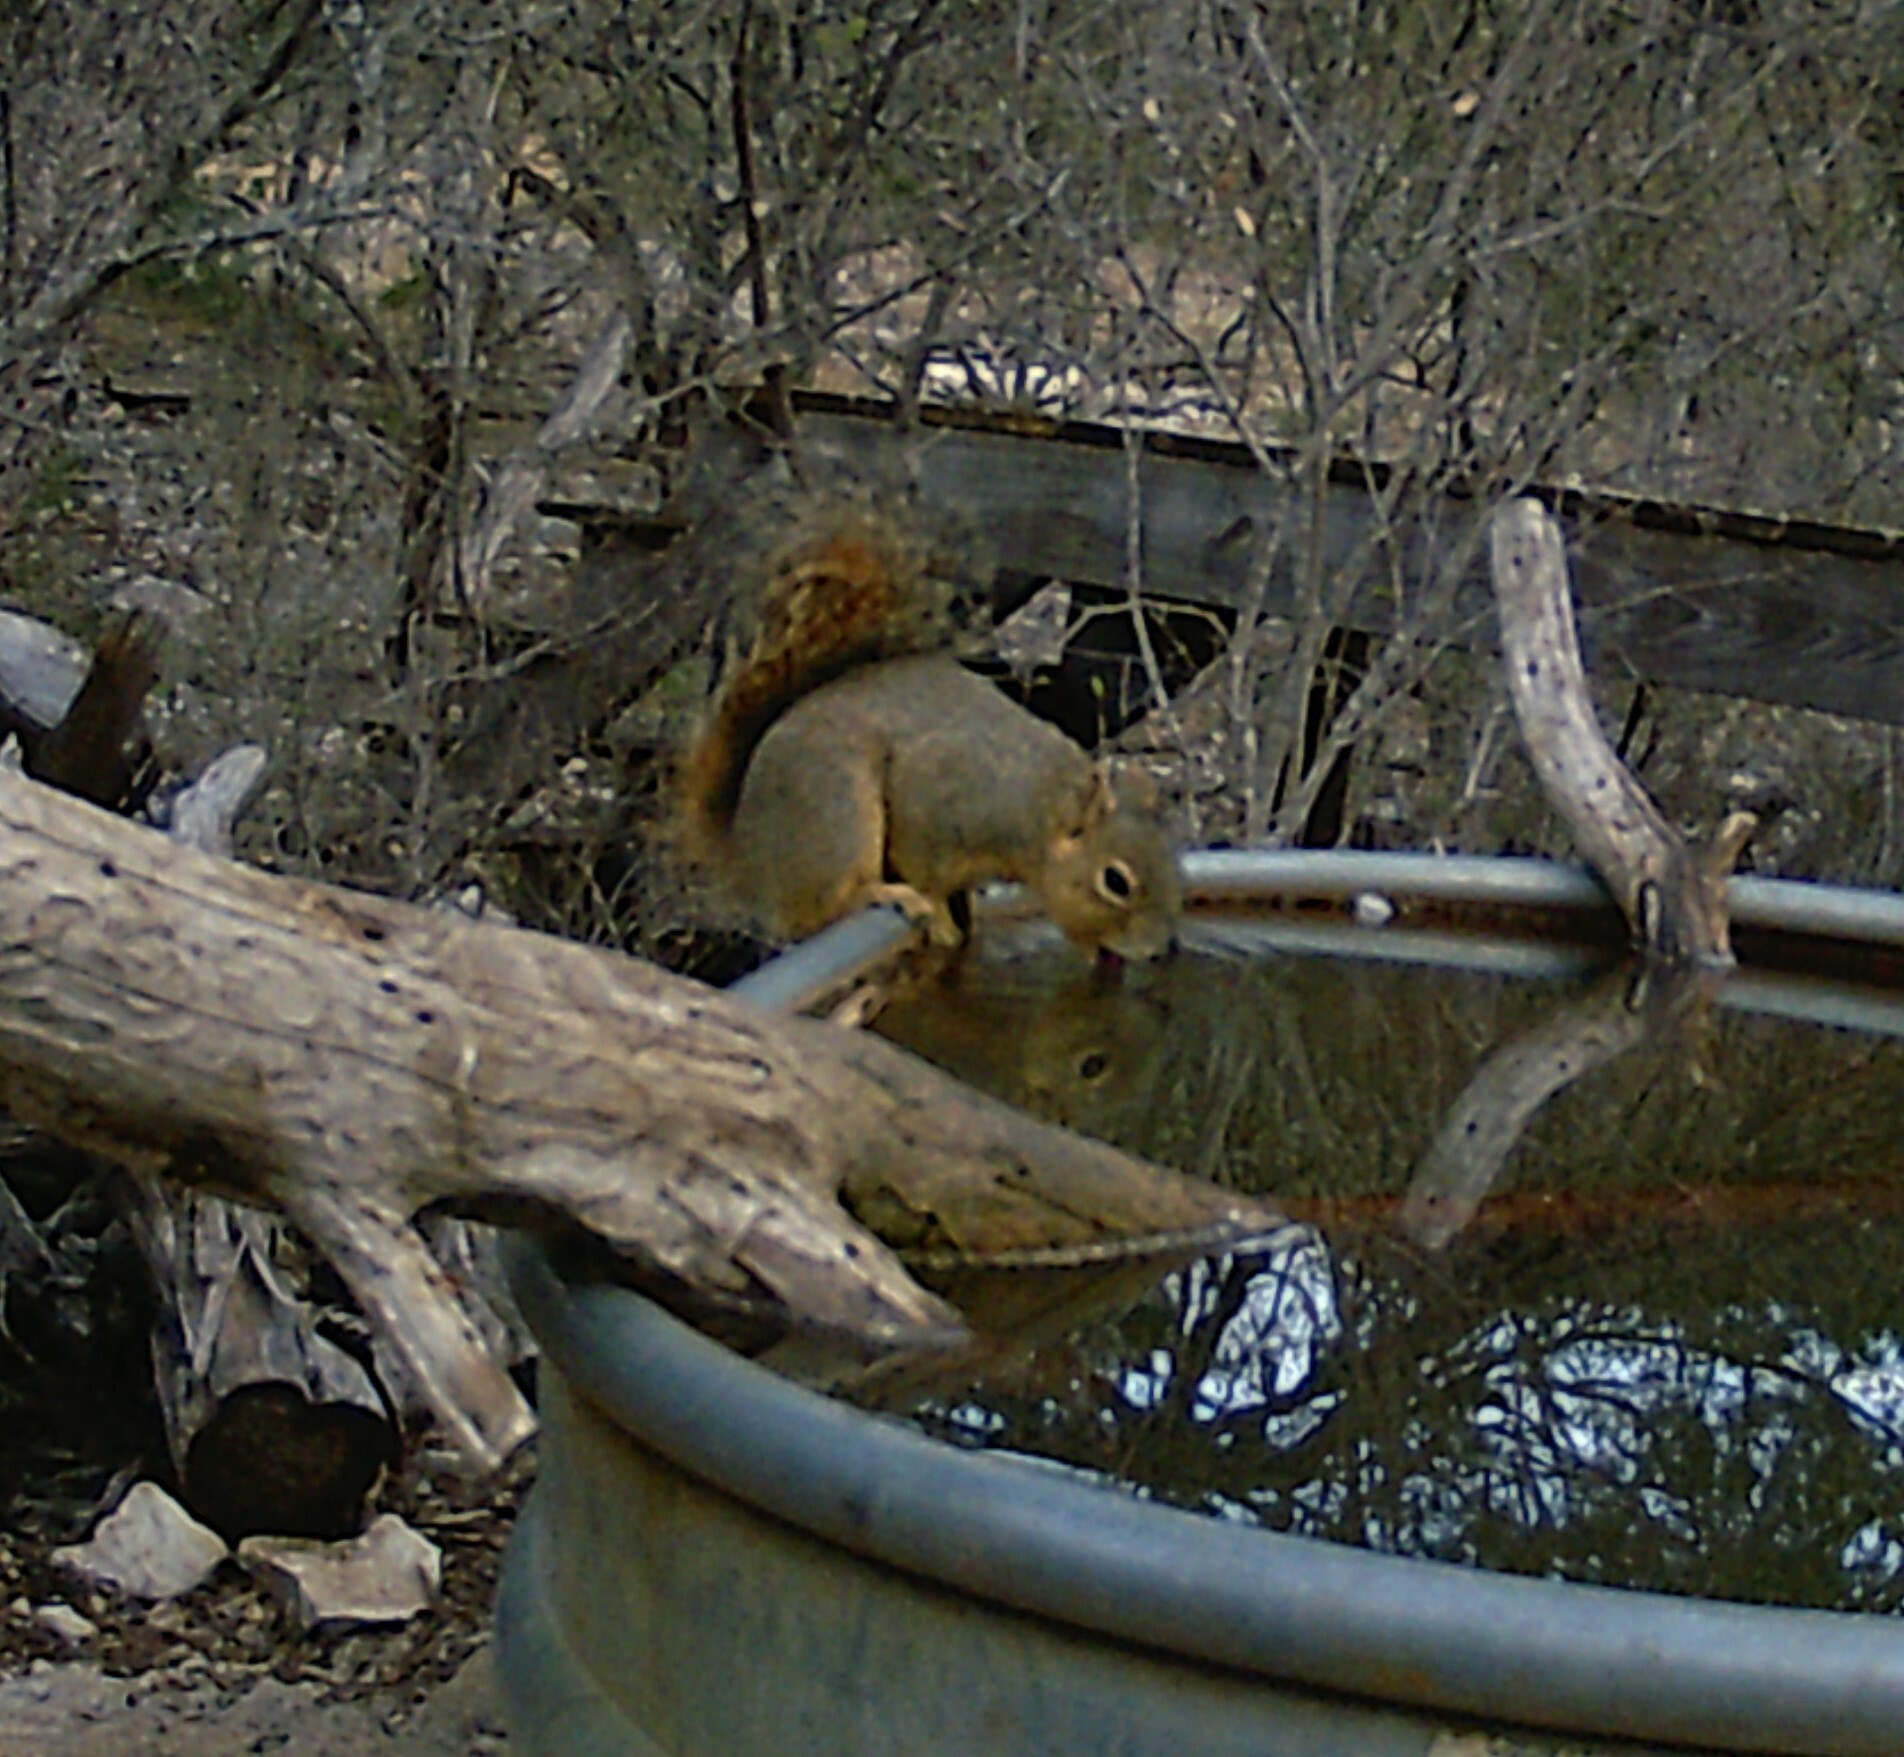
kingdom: Animalia
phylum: Chordata
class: Mammalia
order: Rodentia
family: Sciuridae
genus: Sciurus
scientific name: Sciurus niger
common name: Fox squirrel
